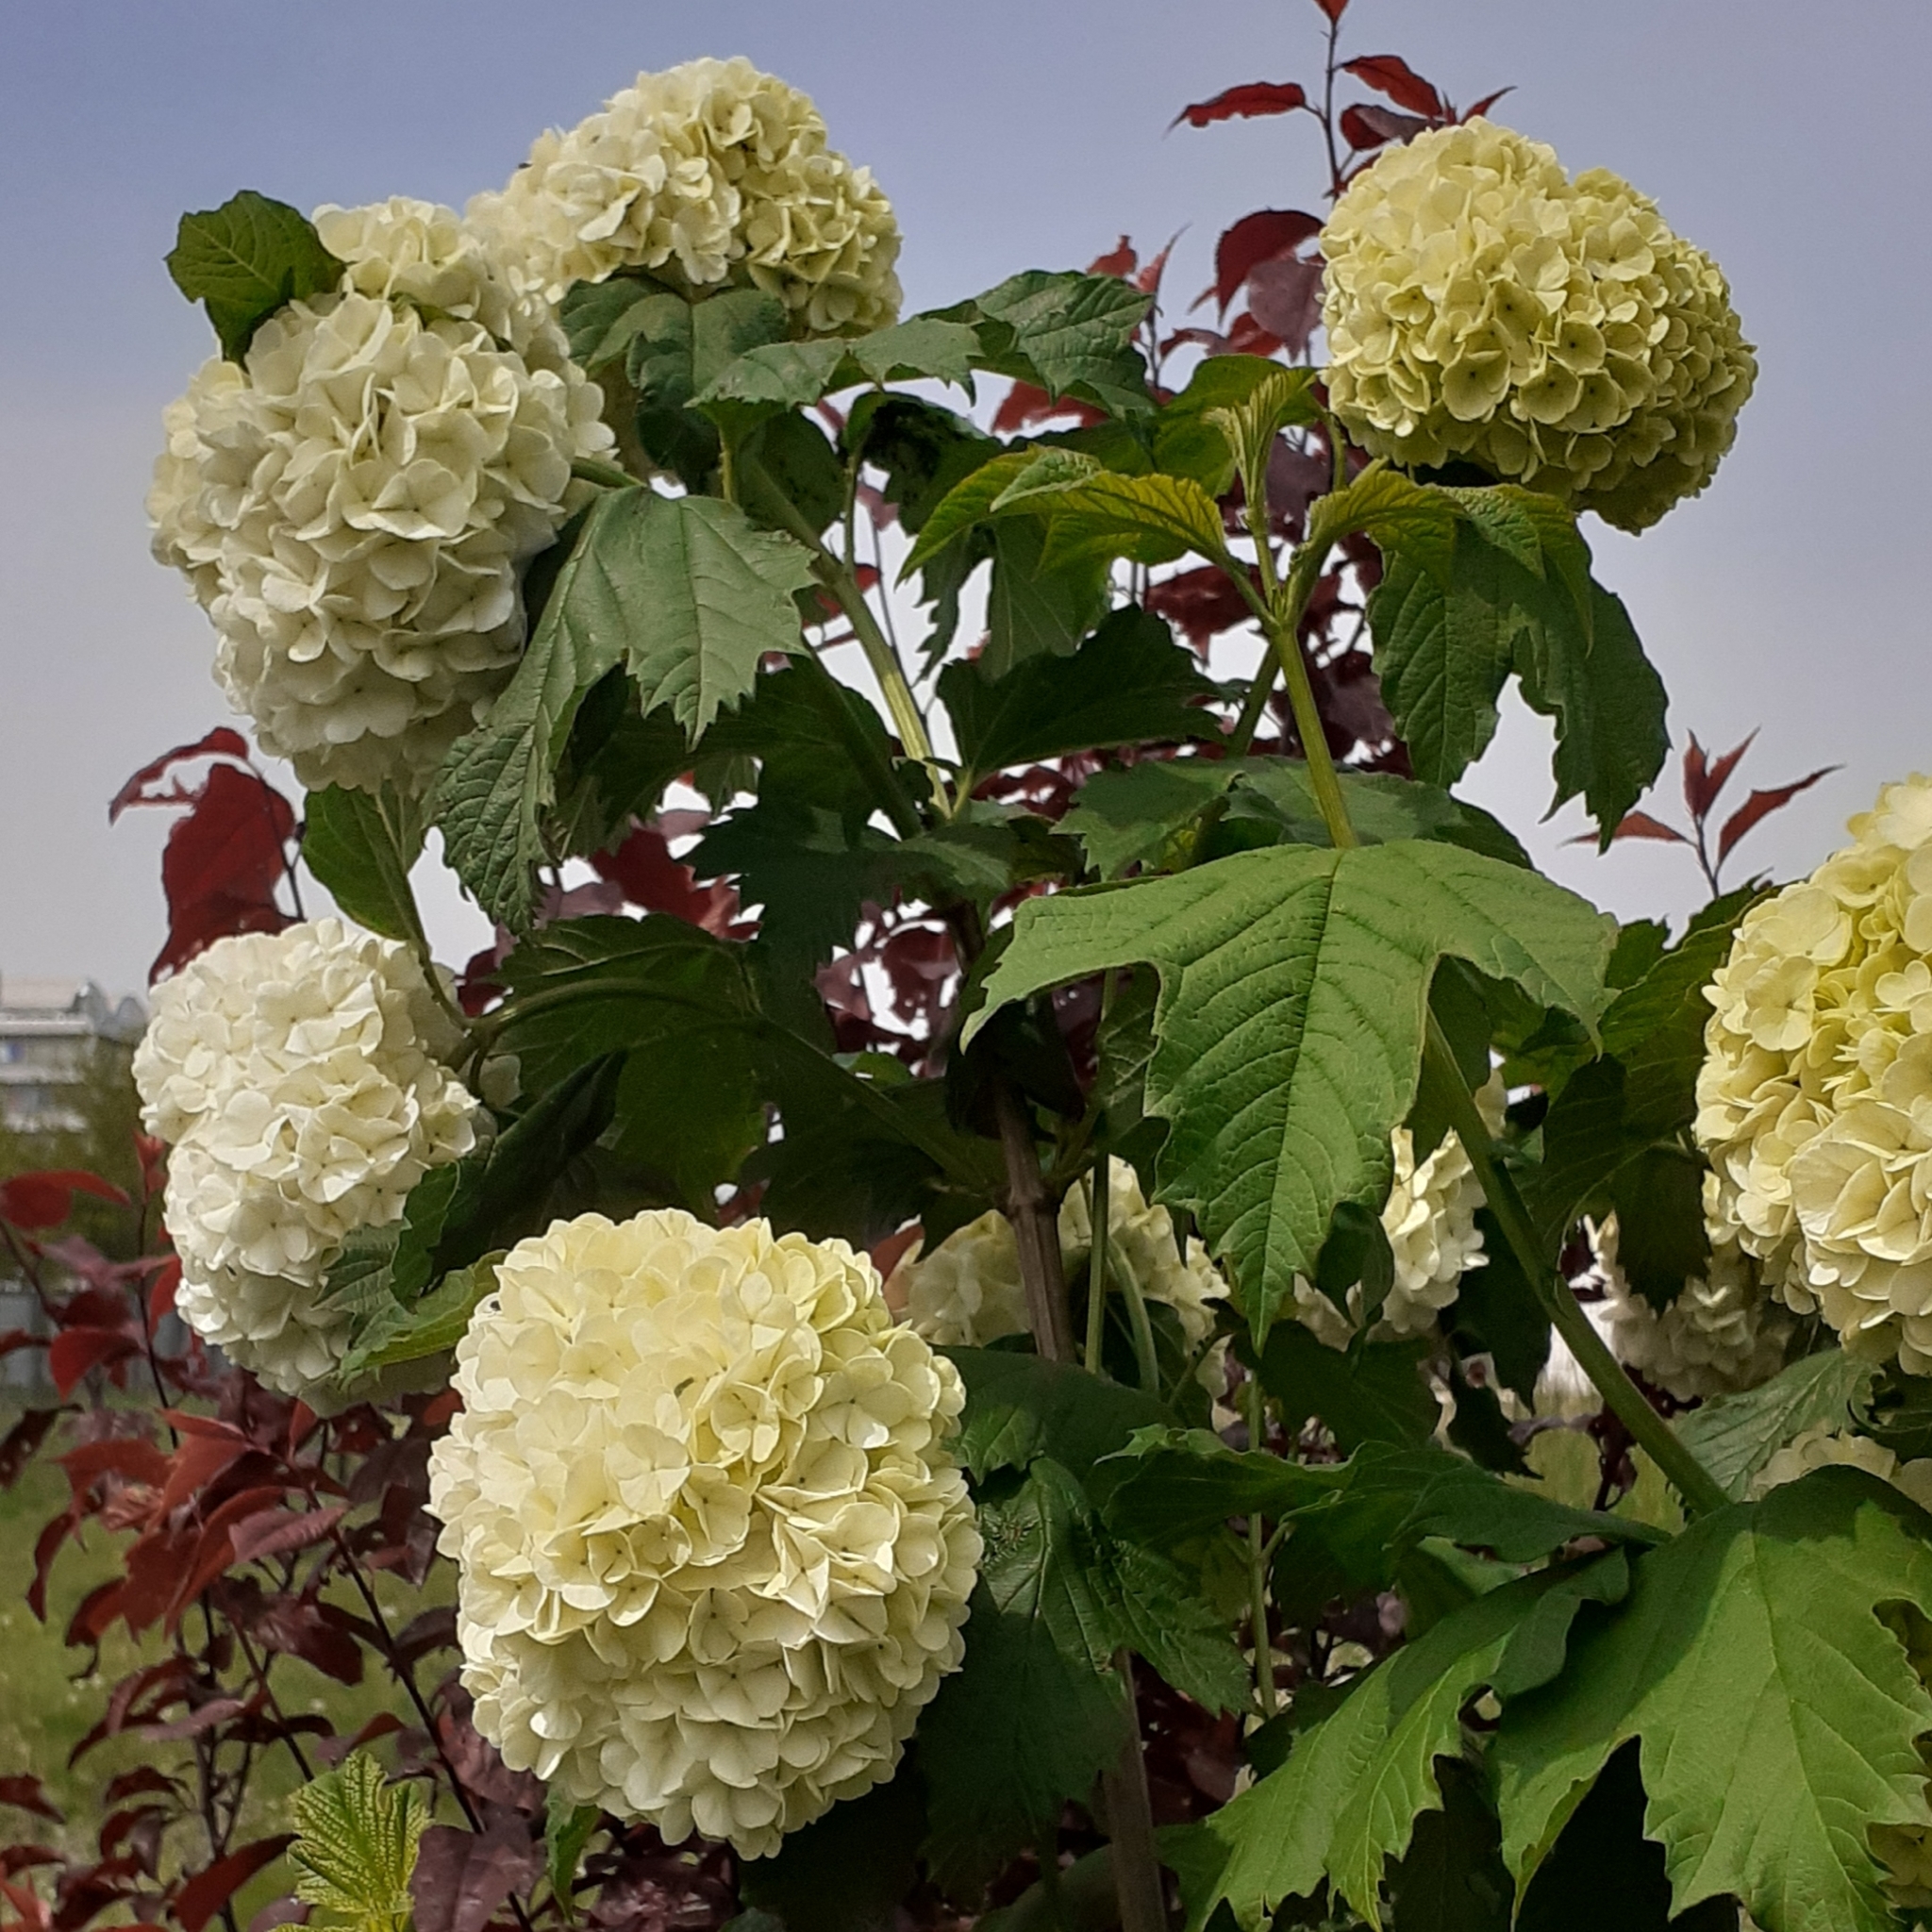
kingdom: Plantae
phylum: Tracheophyta
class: Magnoliopsida
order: Dipsacales
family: Viburnaceae
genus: Viburnum
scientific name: Viburnum opulus
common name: Guelder-rose
